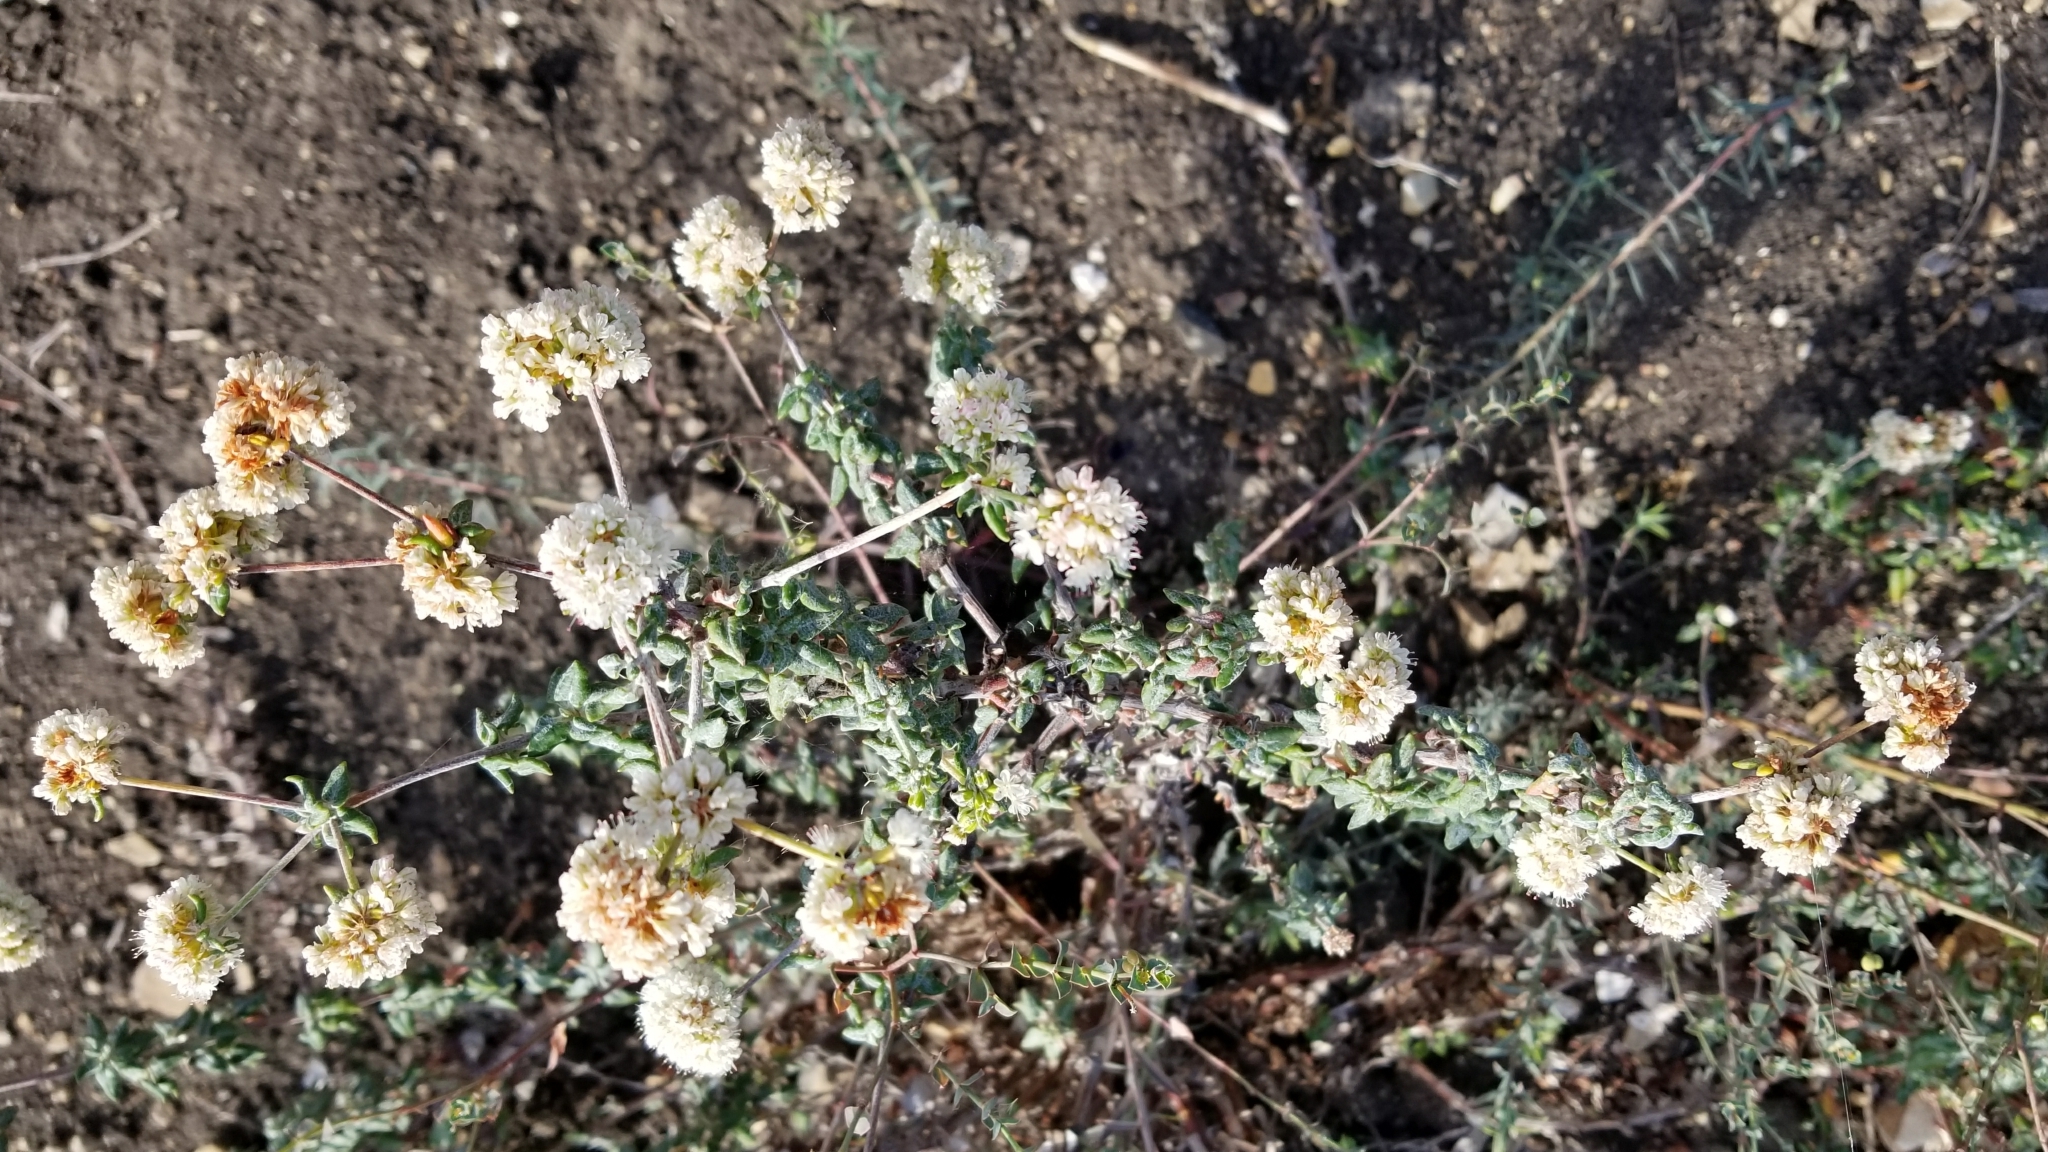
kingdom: Plantae
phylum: Tracheophyta
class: Magnoliopsida
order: Caryophyllales
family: Polygonaceae
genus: Eriogonum
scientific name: Eriogonum parvifolium
